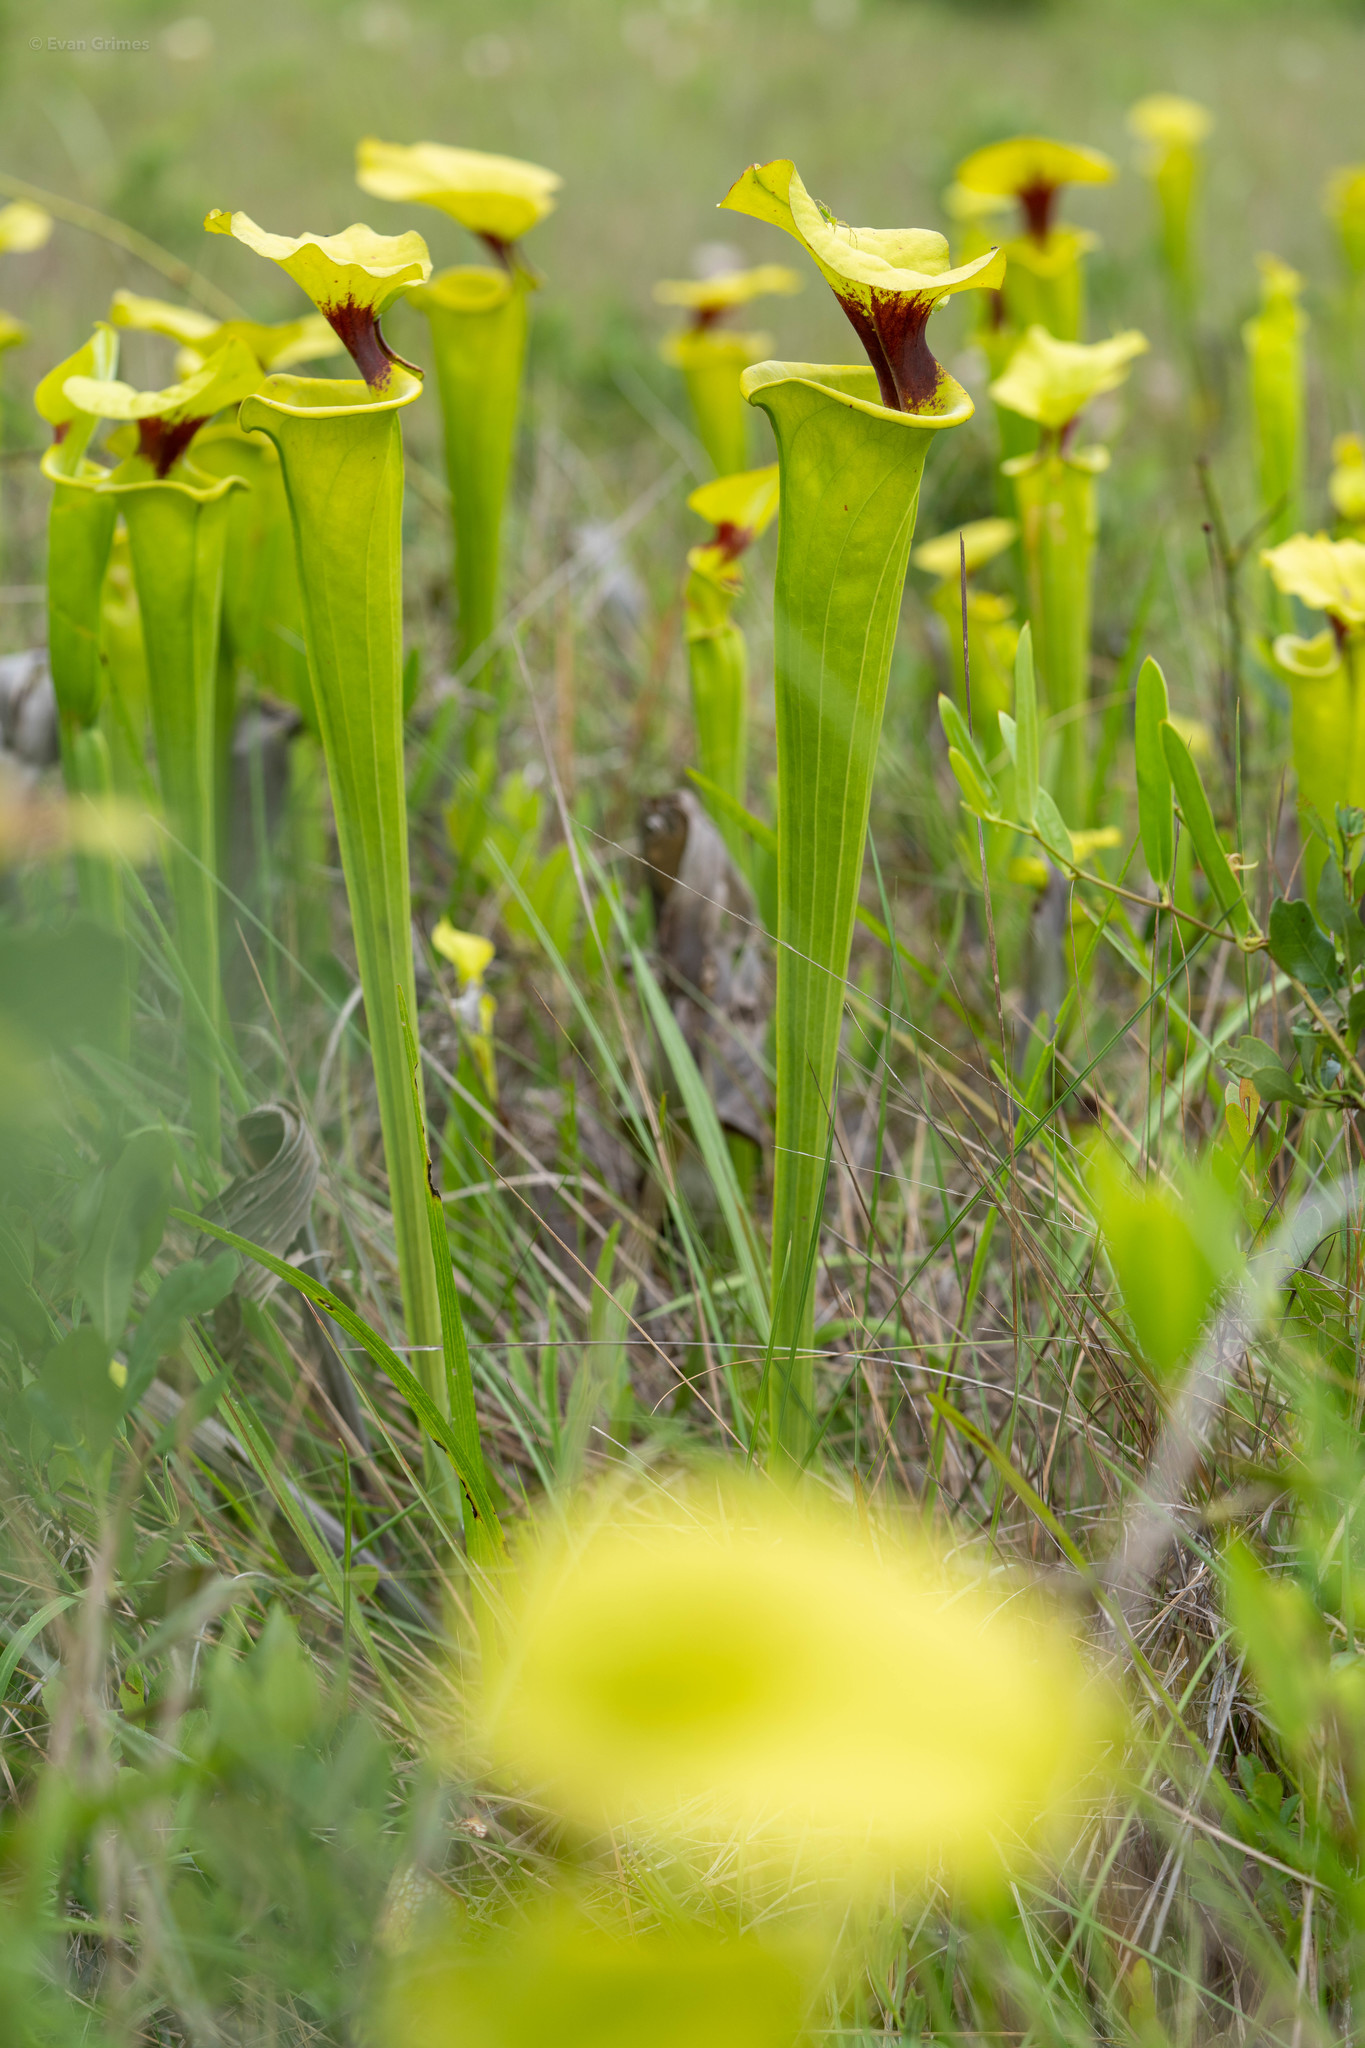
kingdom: Plantae
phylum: Tracheophyta
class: Magnoliopsida
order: Ericales
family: Sarraceniaceae
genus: Sarracenia
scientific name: Sarracenia flava
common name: Trumpets
